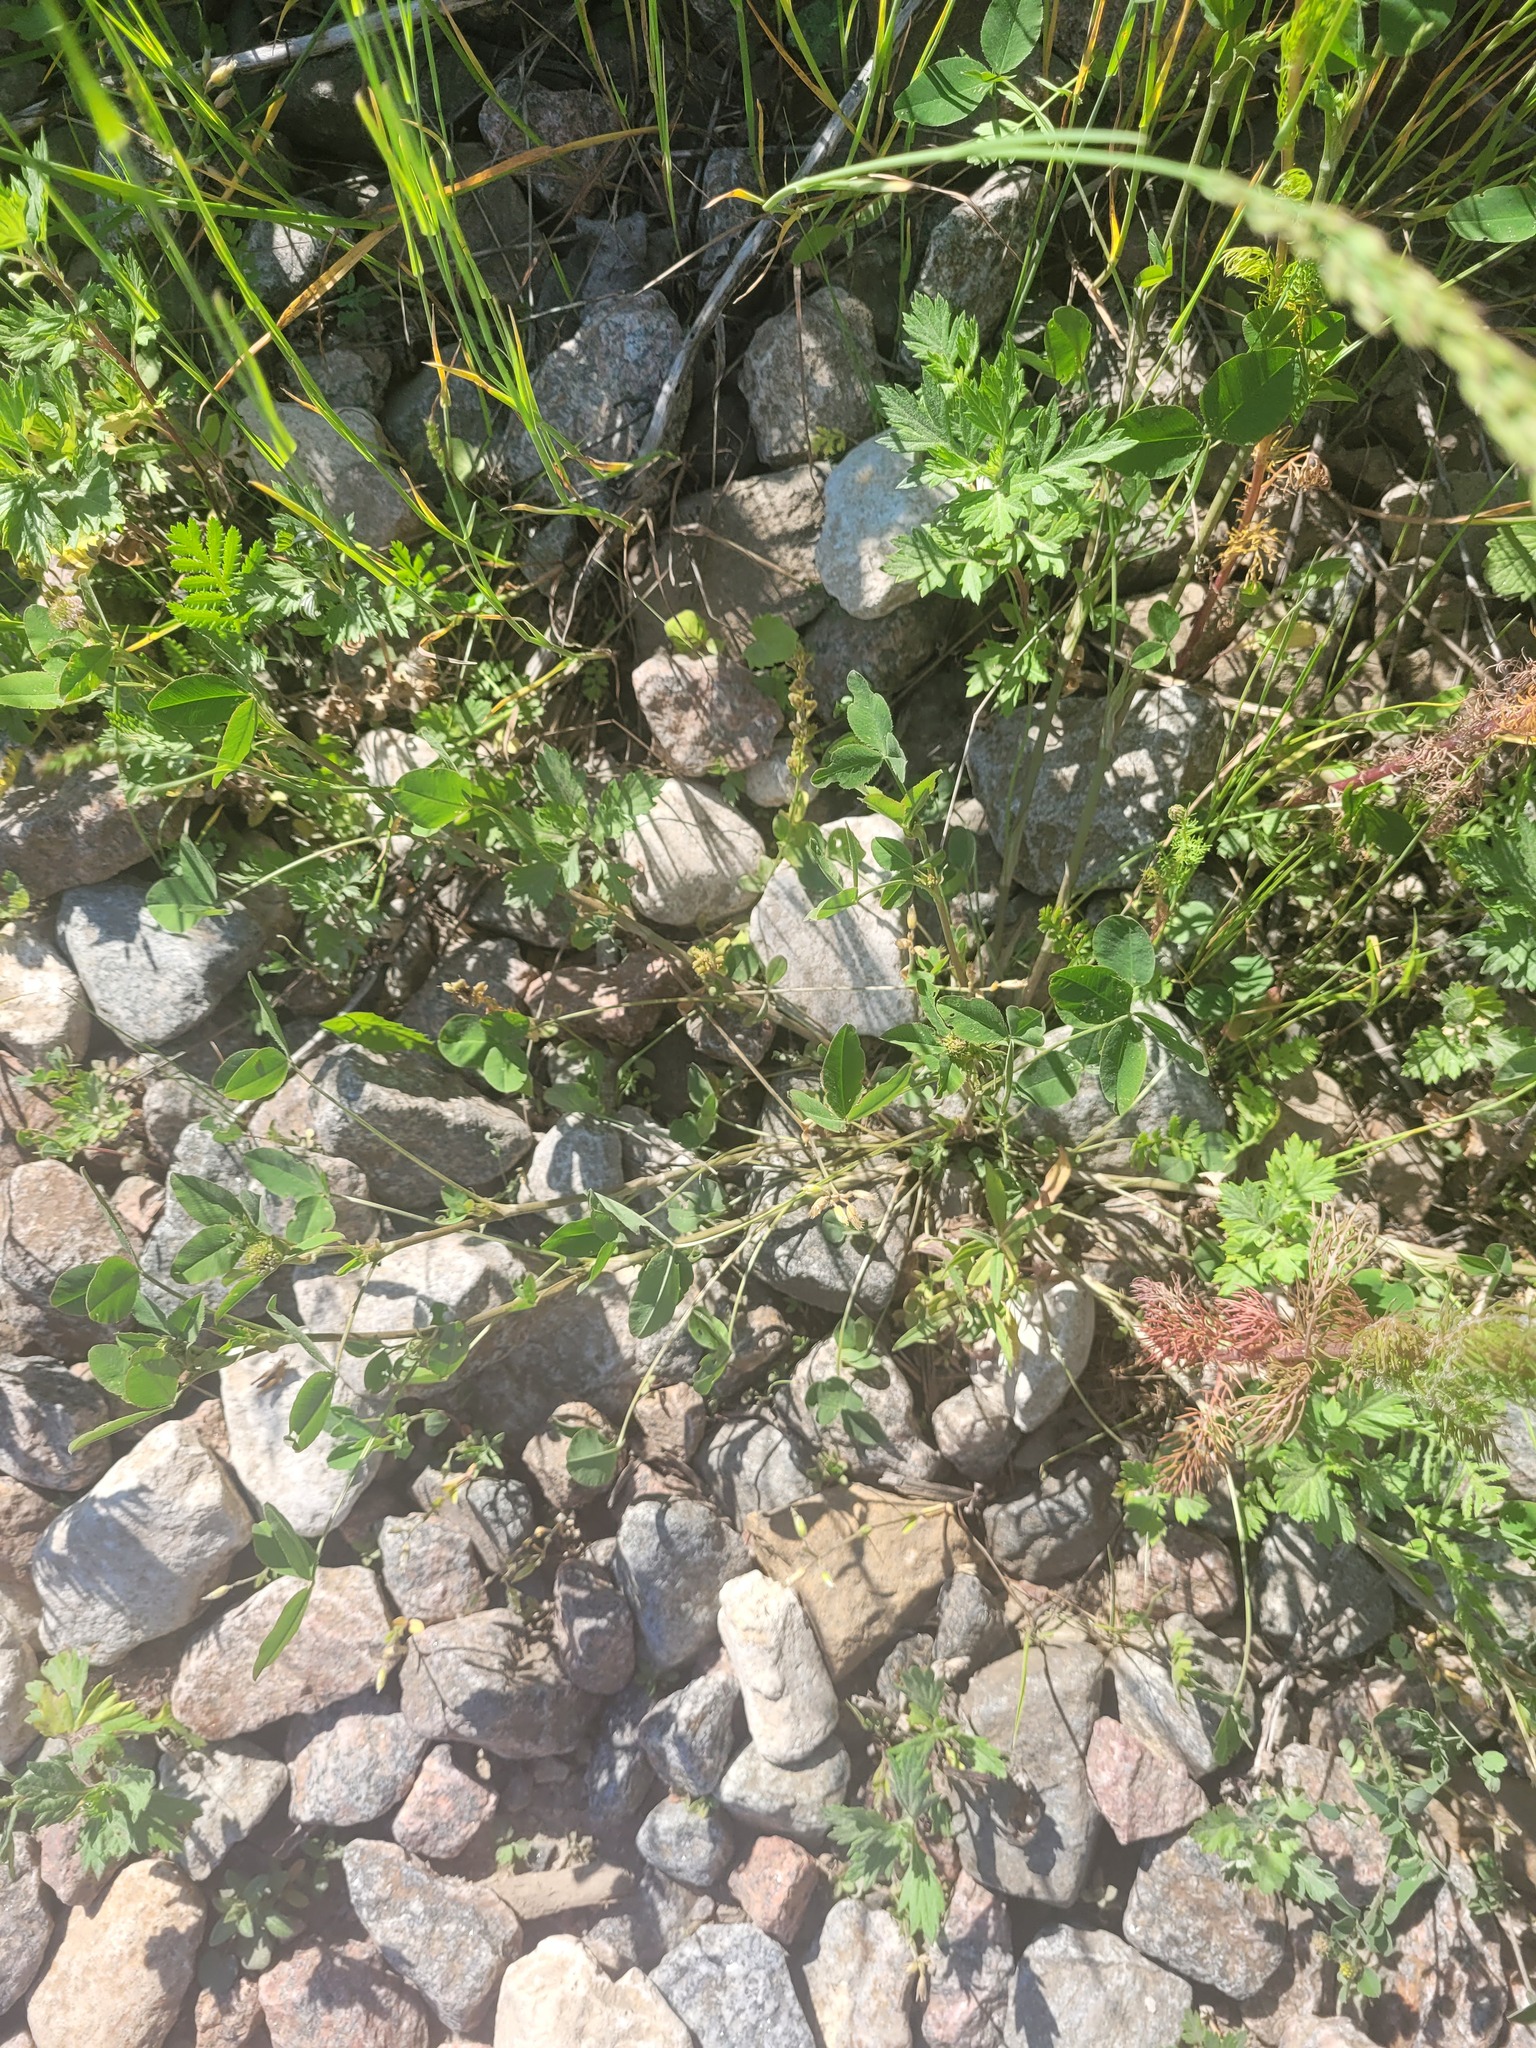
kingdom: Plantae
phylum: Tracheophyta
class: Magnoliopsida
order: Fabales
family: Fabaceae
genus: Trifolium
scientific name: Trifolium hybridum
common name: Alsike clover
